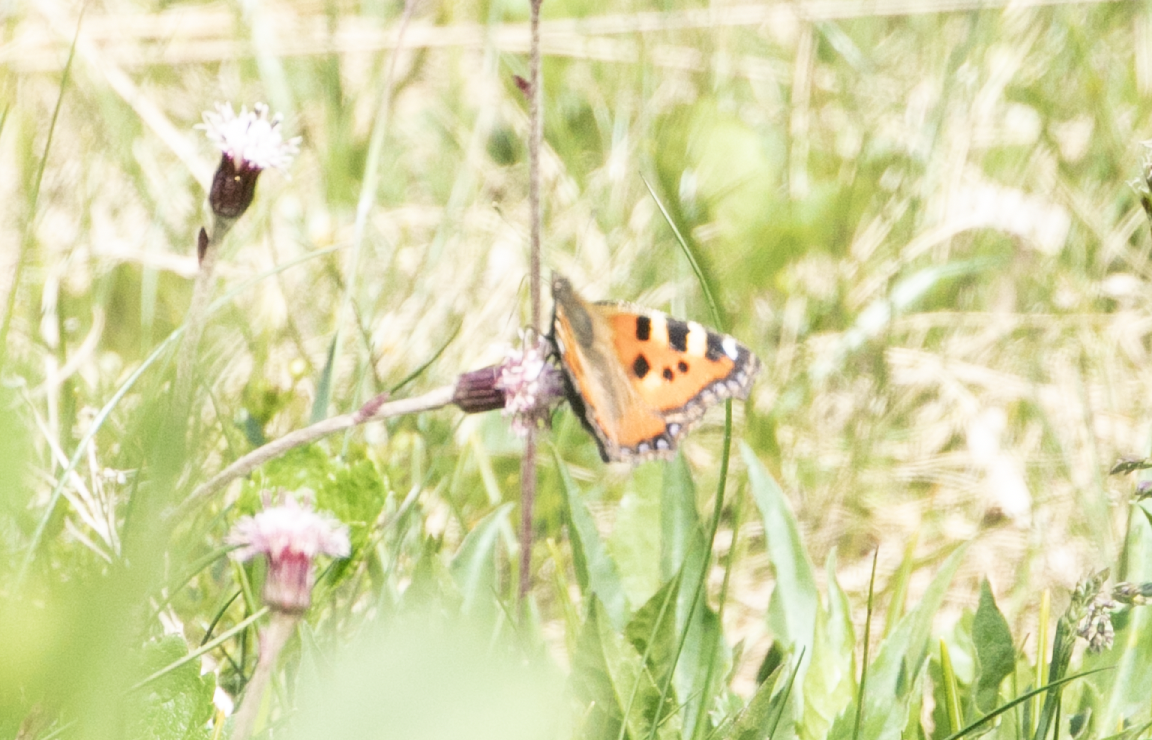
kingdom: Animalia
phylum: Arthropoda
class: Insecta
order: Lepidoptera
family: Nymphalidae
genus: Aglais
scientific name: Aglais urticae
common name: Small tortoiseshell
